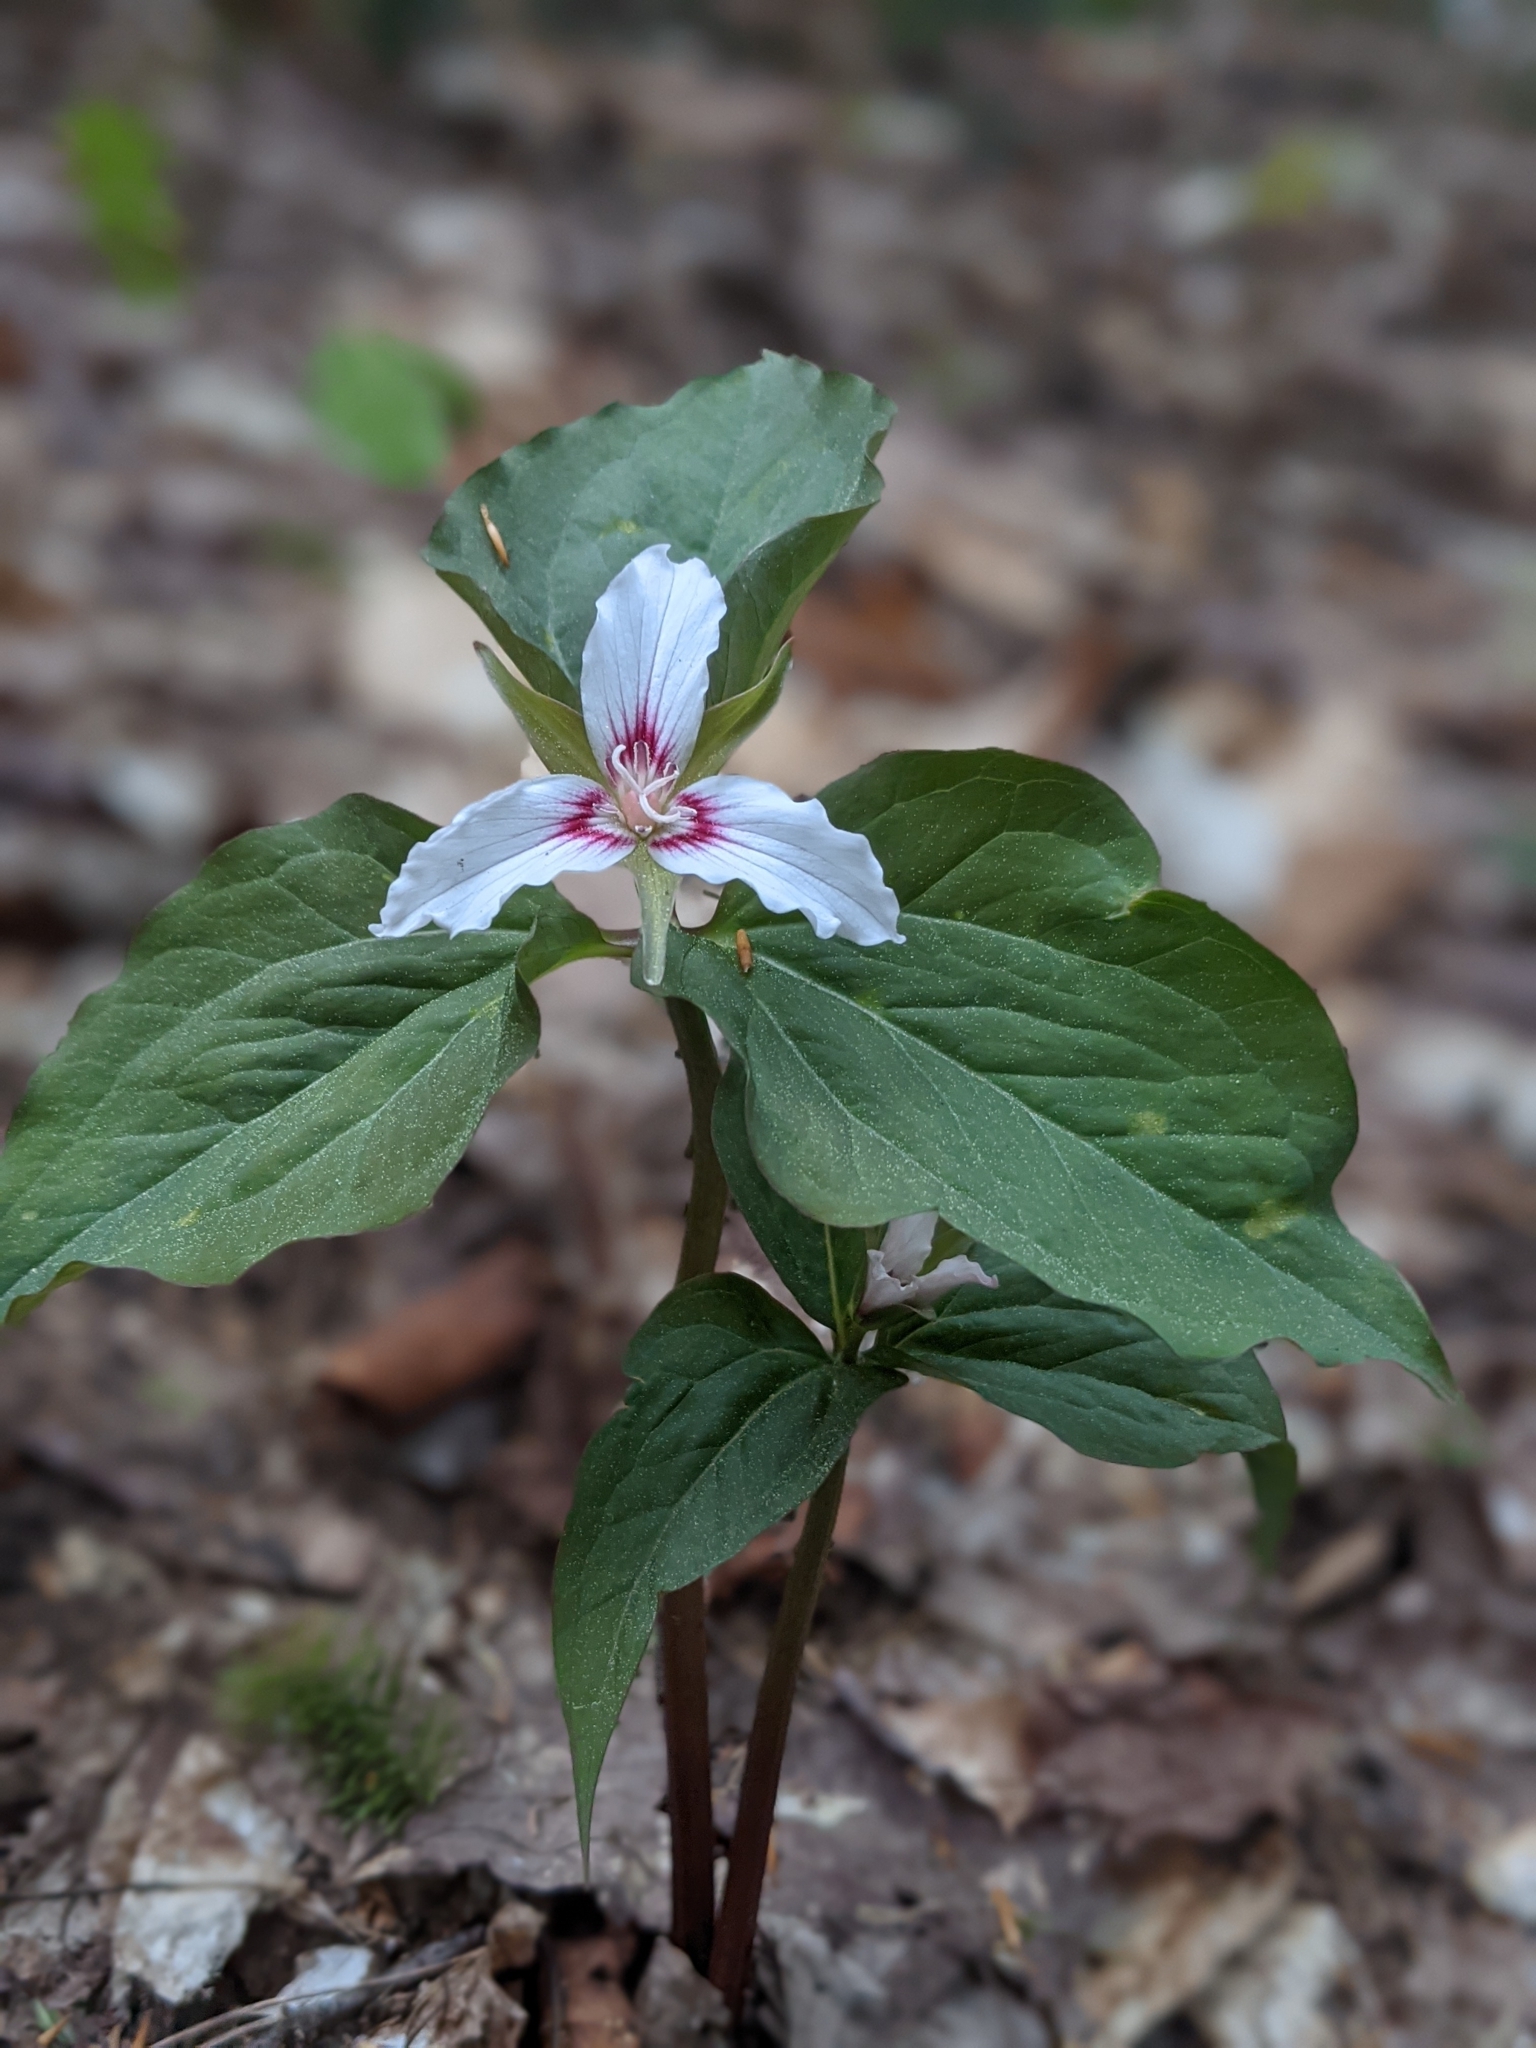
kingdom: Plantae
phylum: Tracheophyta
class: Liliopsida
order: Liliales
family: Melanthiaceae
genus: Trillium
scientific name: Trillium undulatum
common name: Paint trillium
